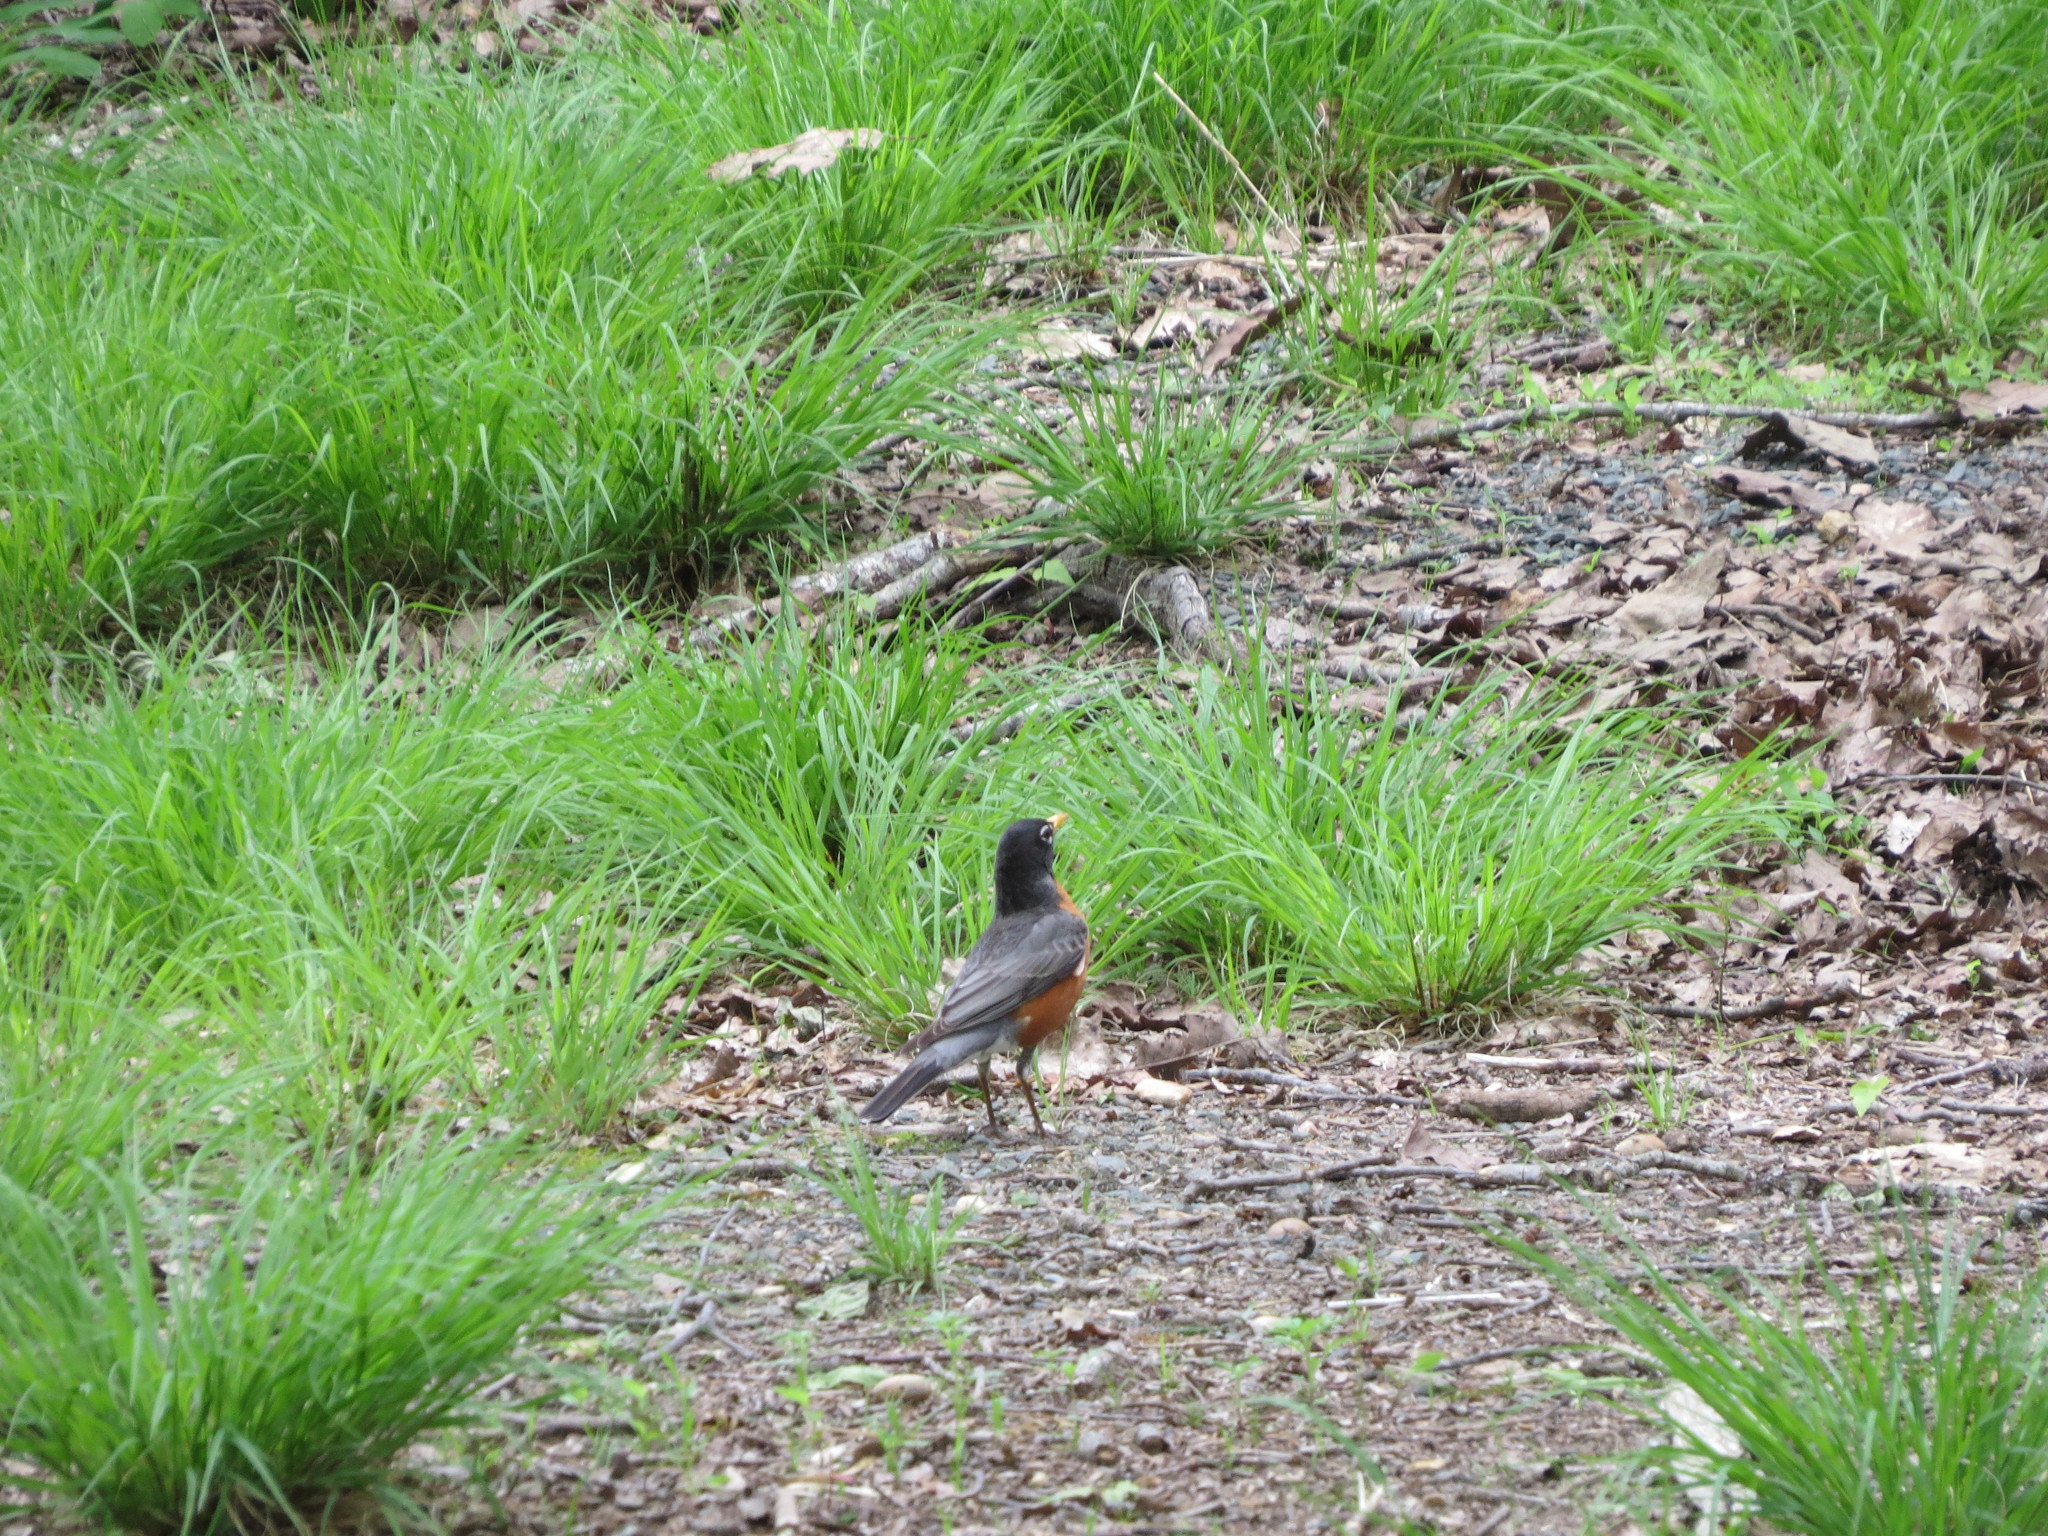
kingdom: Animalia
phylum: Chordata
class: Aves
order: Passeriformes
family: Turdidae
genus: Turdus
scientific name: Turdus migratorius
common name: American robin
